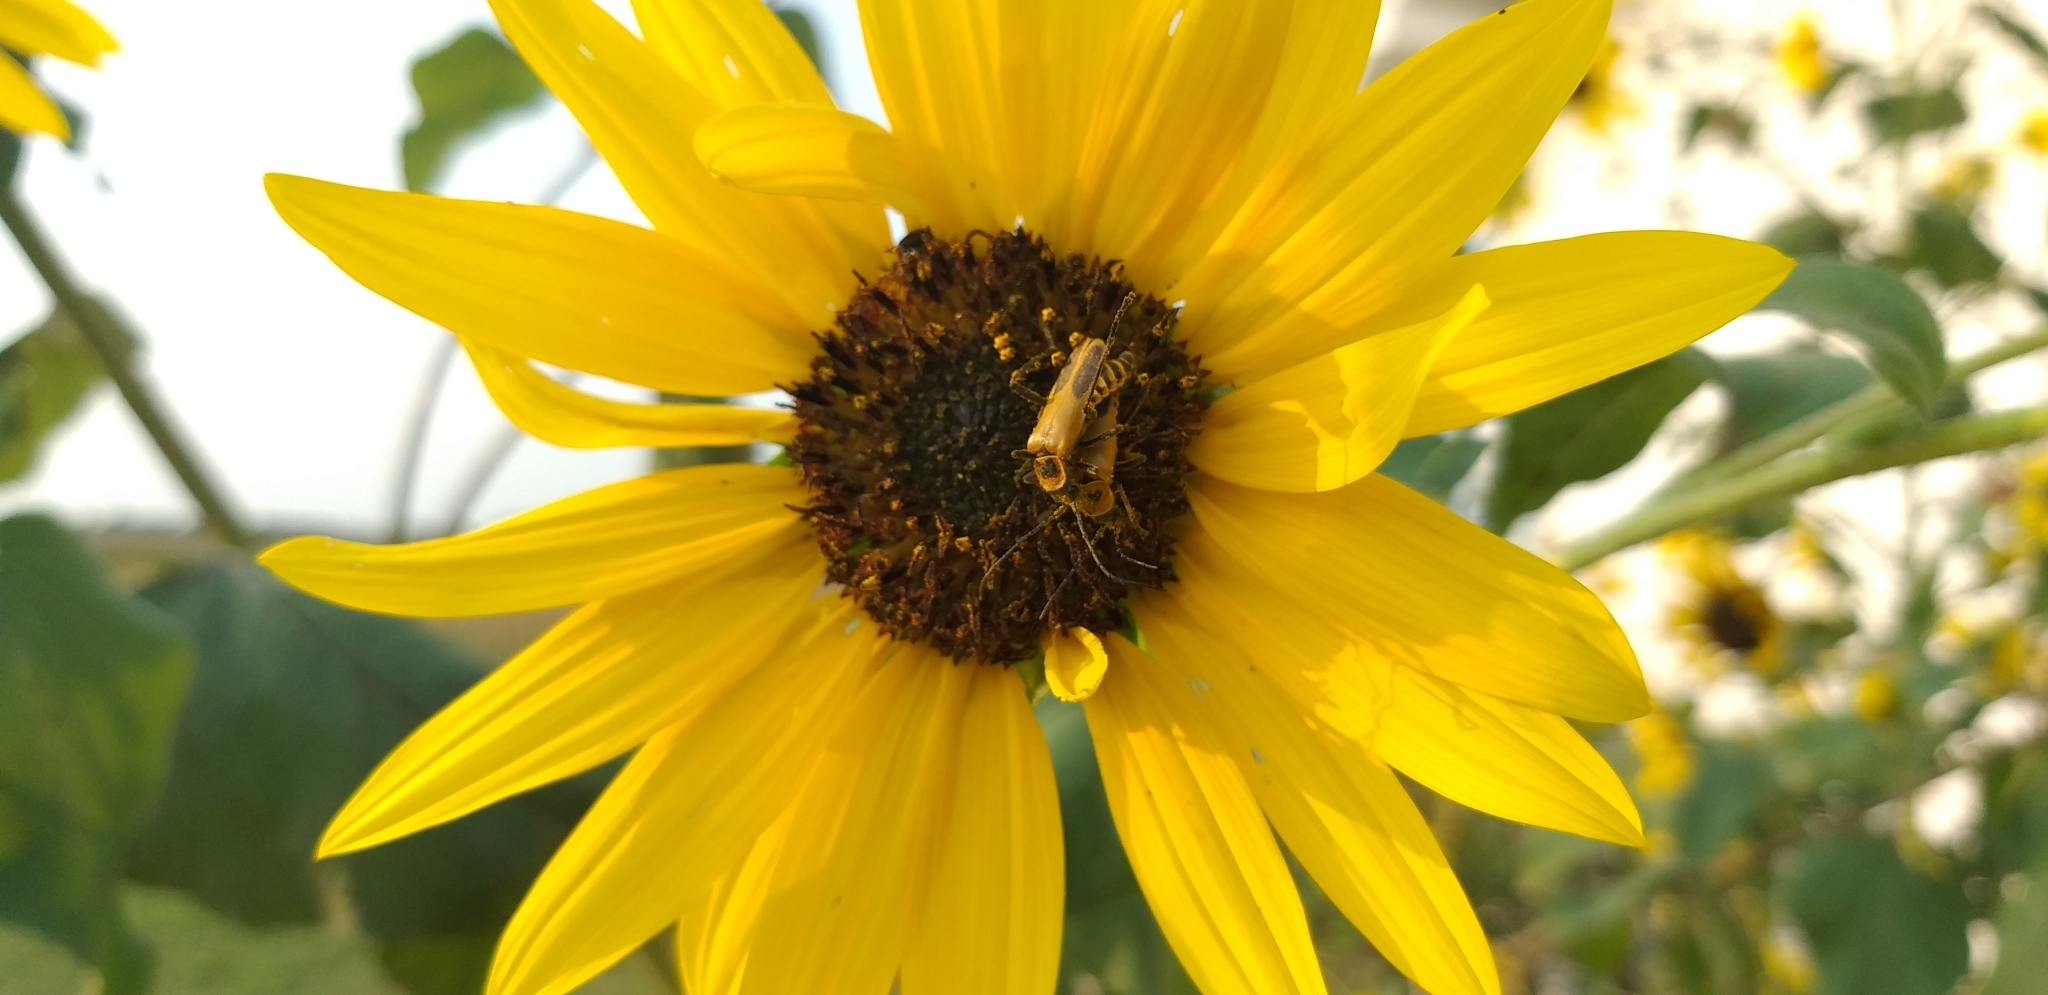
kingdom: Animalia
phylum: Arthropoda
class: Insecta
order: Coleoptera
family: Cantharidae
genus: Chauliognathus
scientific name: Chauliognathus pensylvanicus
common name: Goldenrod soldier beetle
